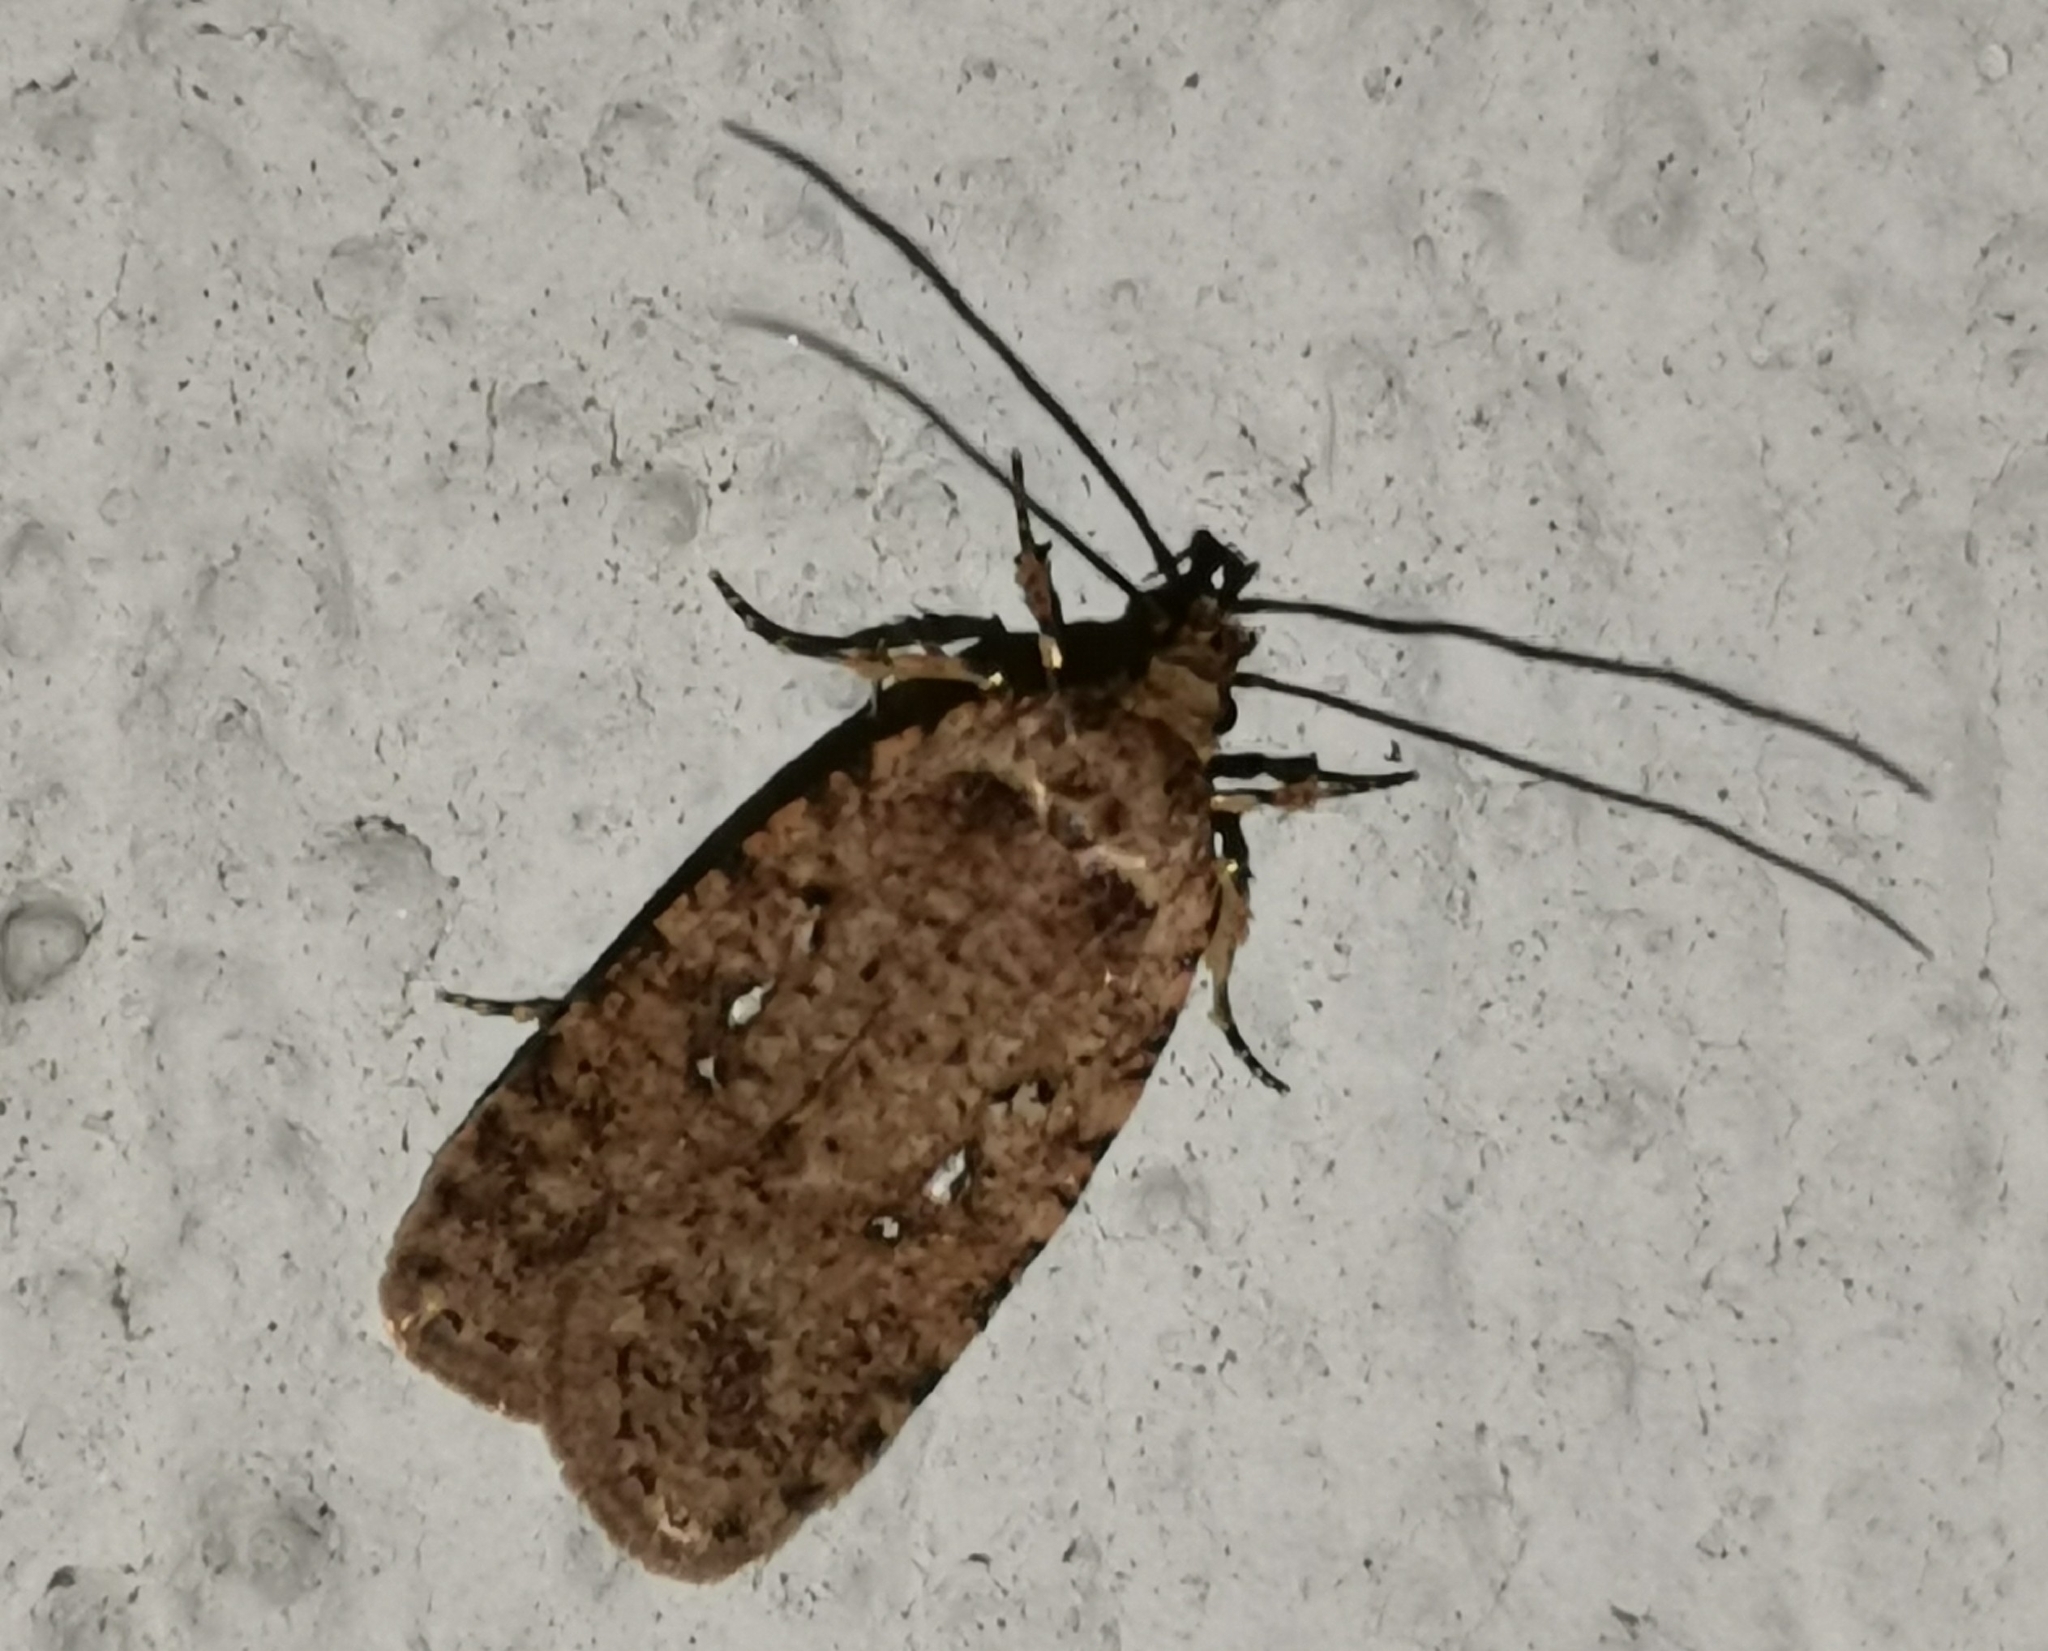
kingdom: Animalia
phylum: Arthropoda
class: Insecta
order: Lepidoptera
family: Depressariidae
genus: Agonopterix
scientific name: Agonopterix heracliana
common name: Common flat-body
